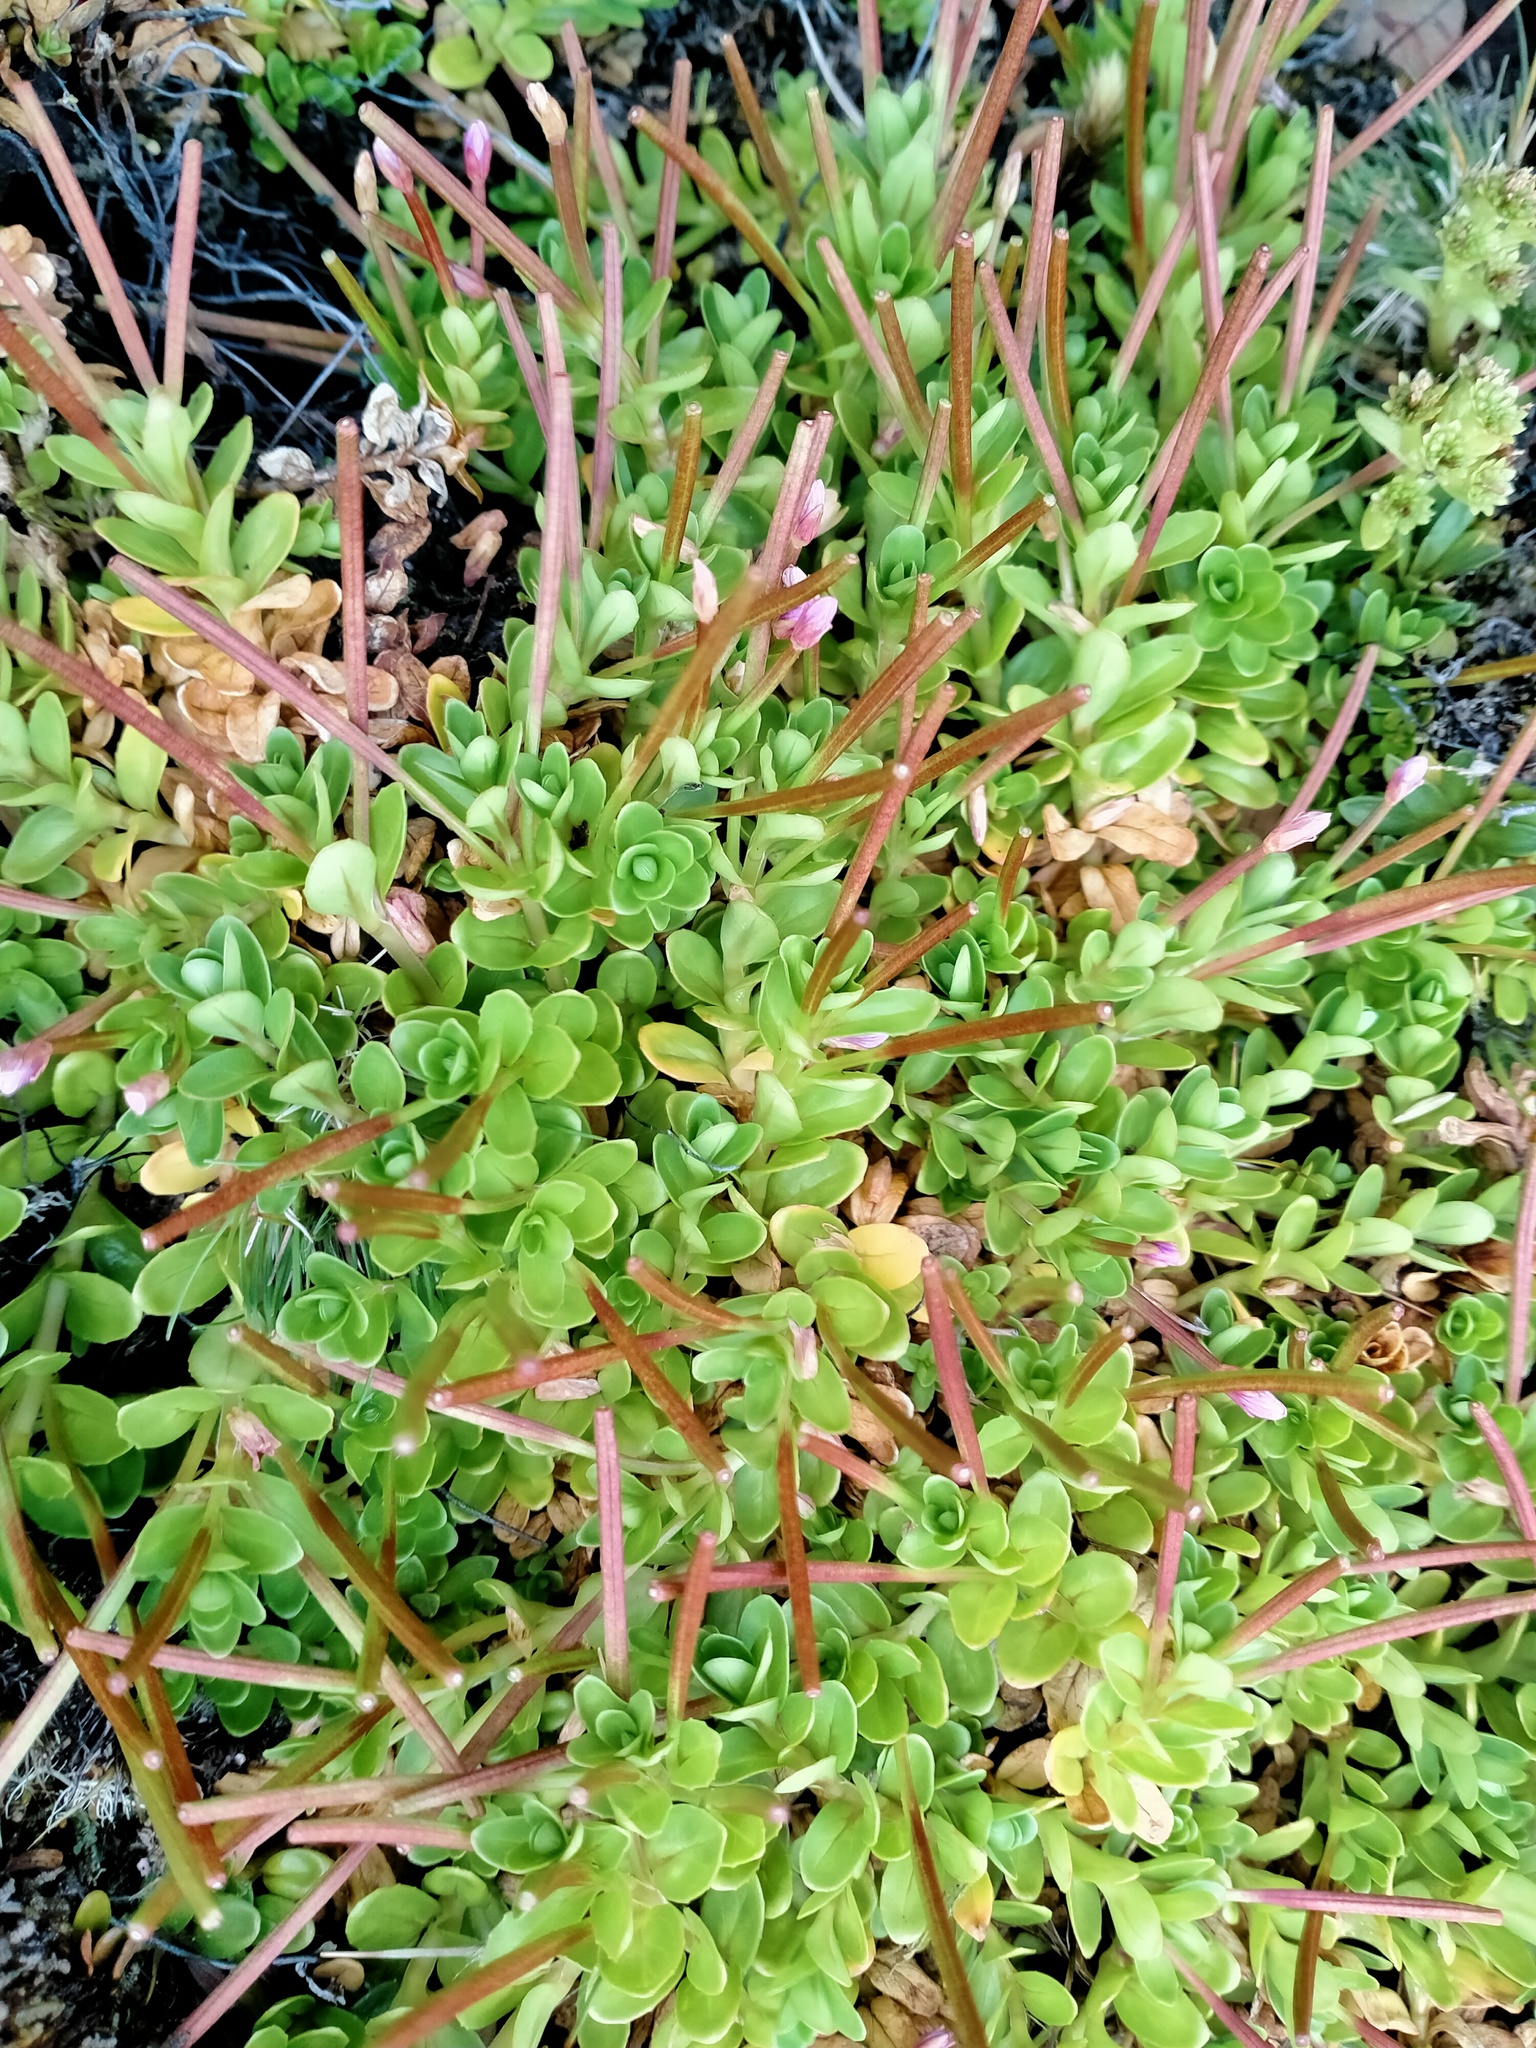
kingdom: Plantae
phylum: Tracheophyta
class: Magnoliopsida
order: Myrtales
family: Onagraceae
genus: Epilobium
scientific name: Epilobium confertifolium
